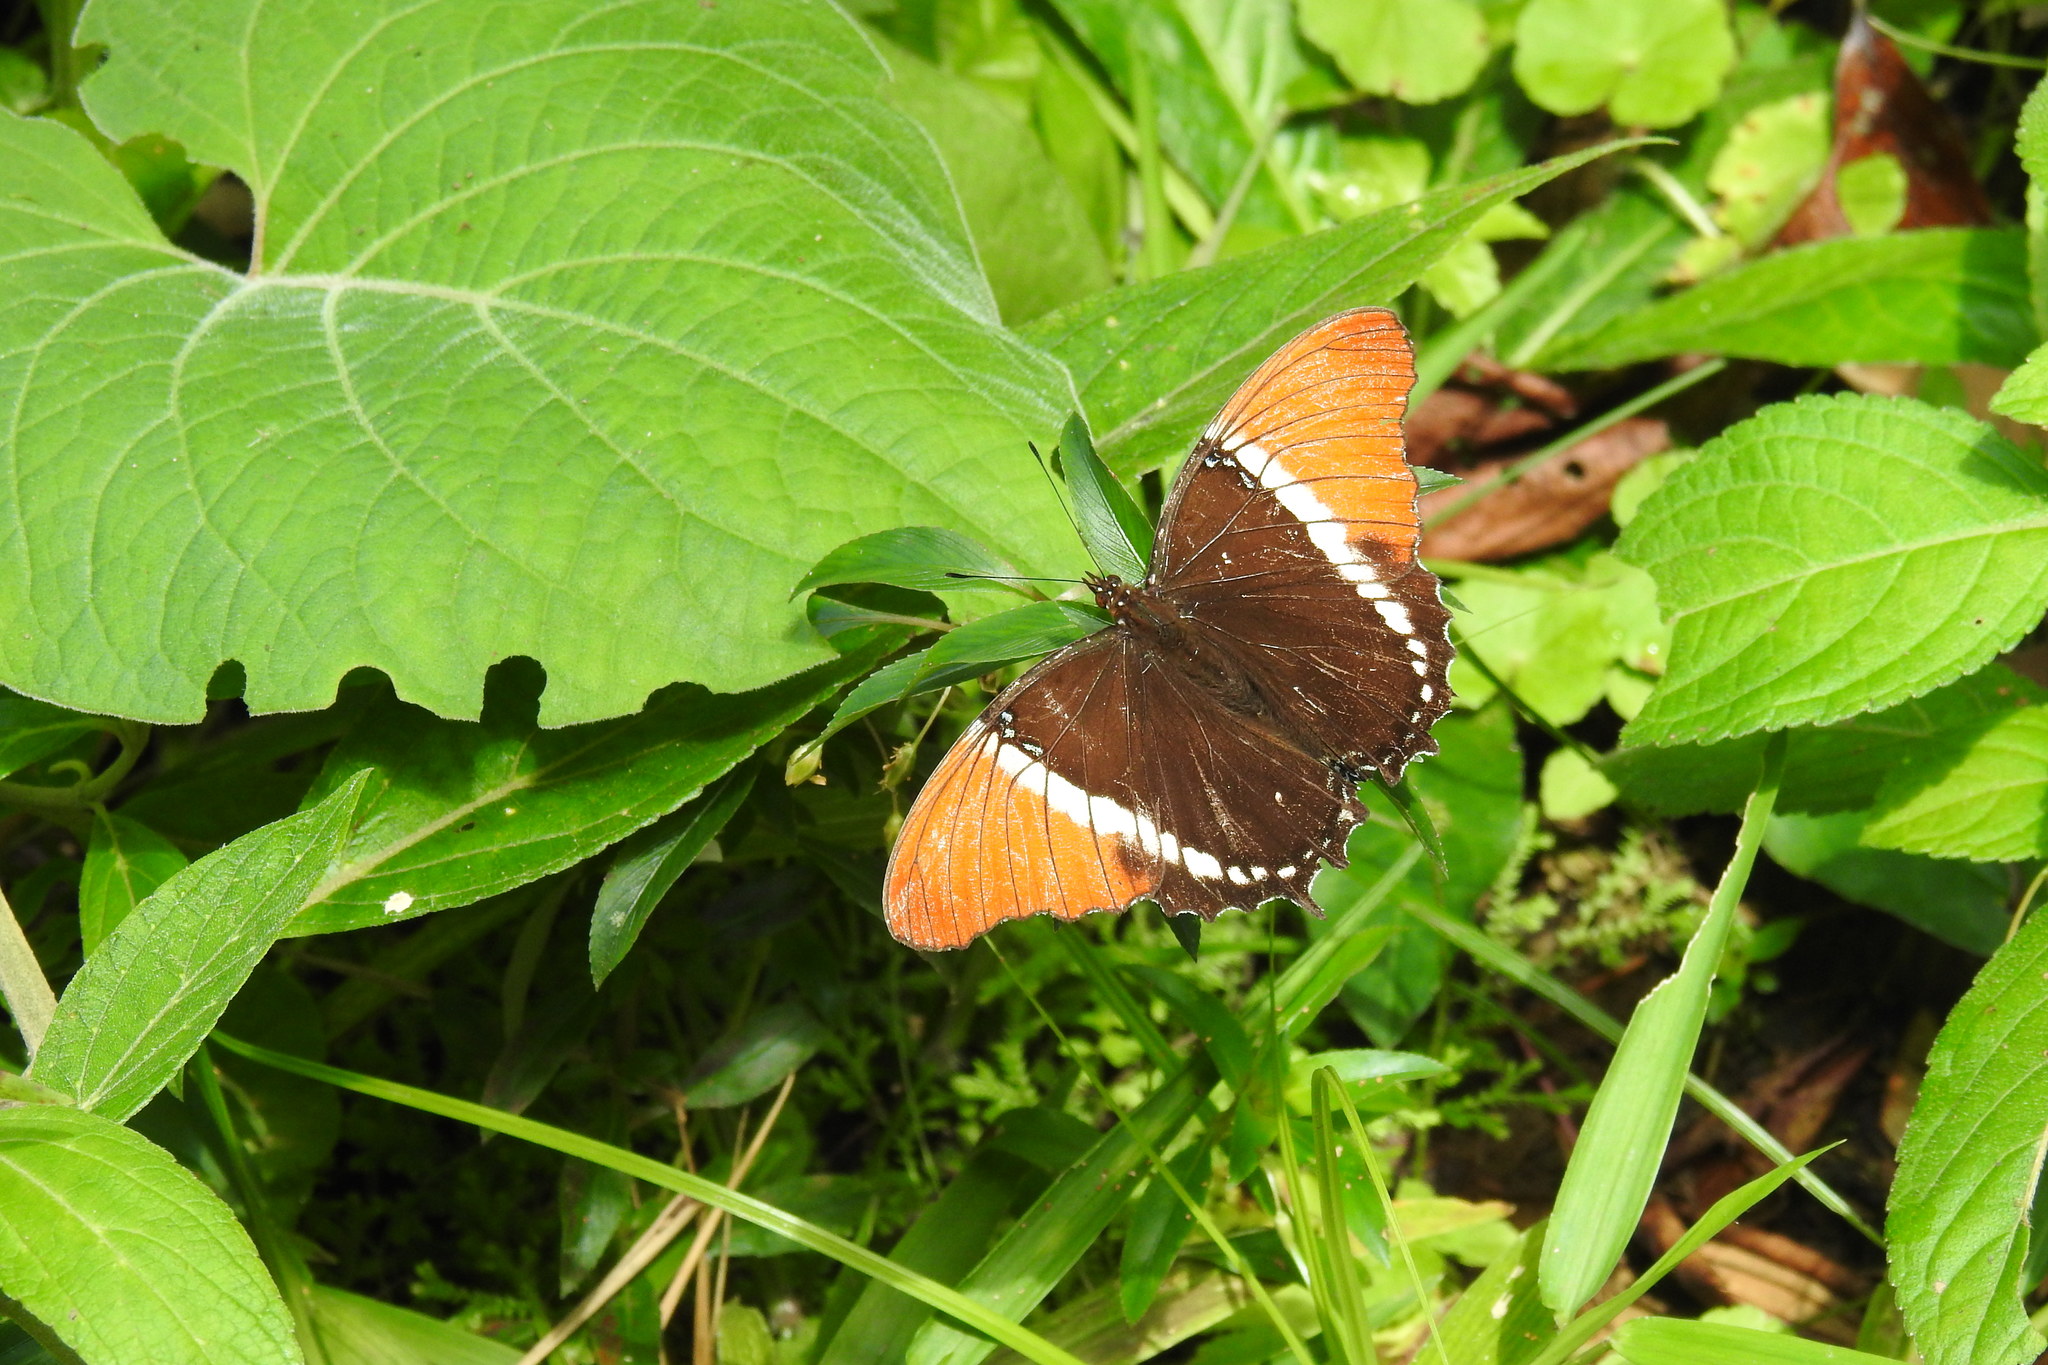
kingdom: Animalia
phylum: Arthropoda
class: Insecta
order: Lepidoptera
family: Nymphalidae
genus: Siproeta
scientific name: Siproeta epaphus
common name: Rusty-tipped page
